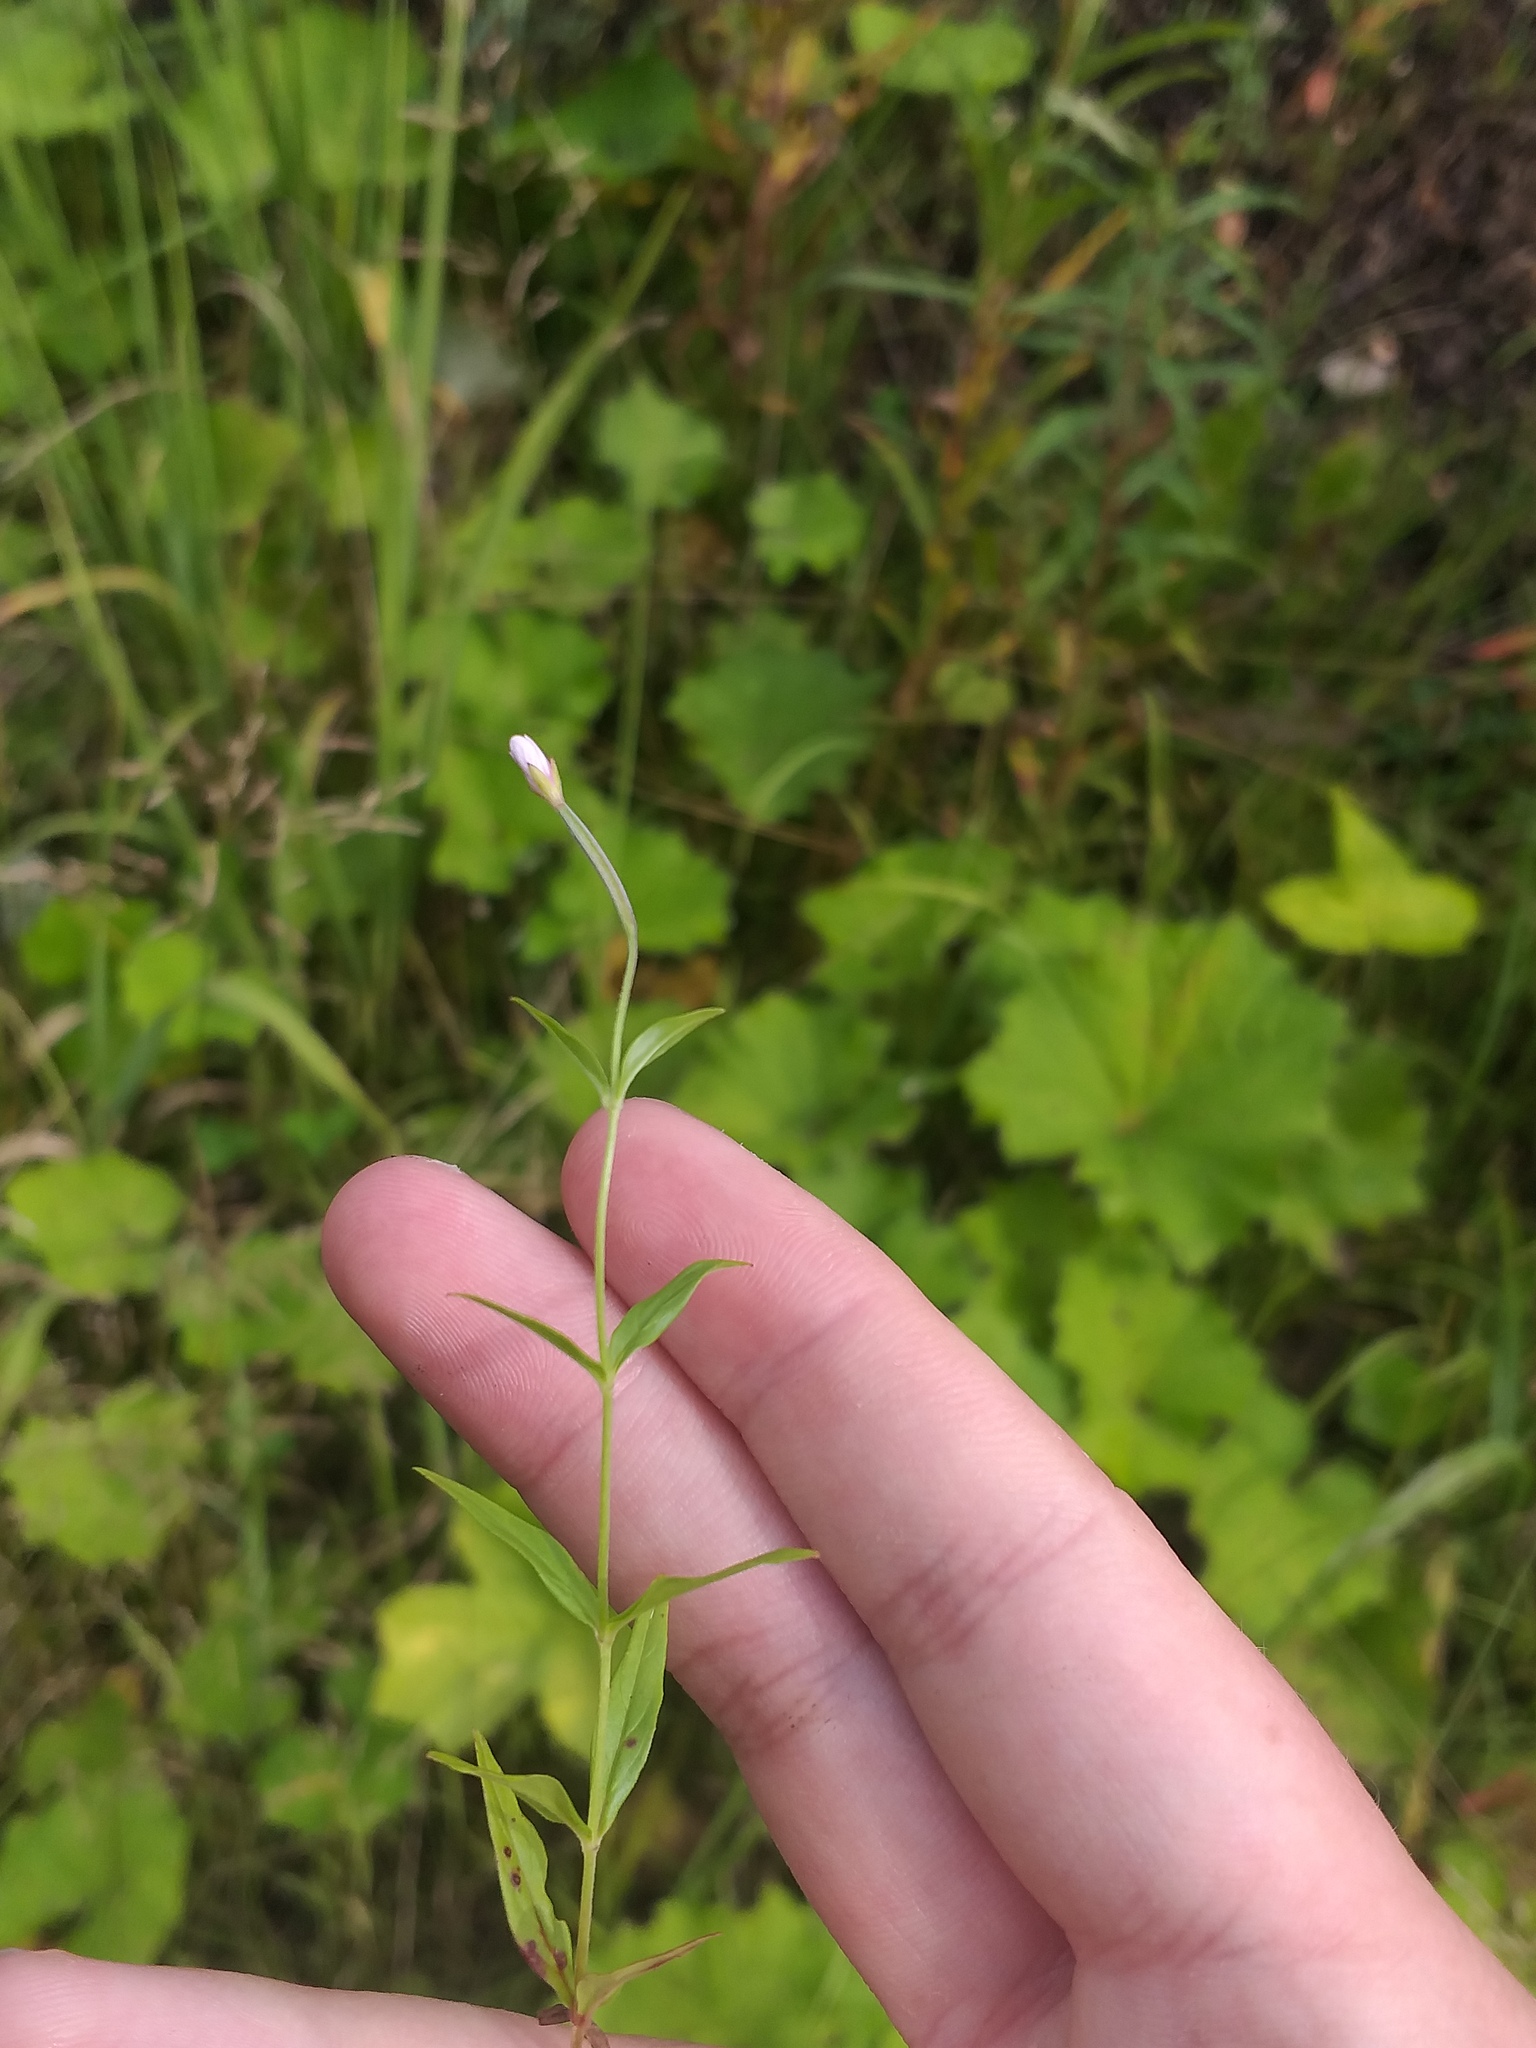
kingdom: Plantae
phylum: Tracheophyta
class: Magnoliopsida
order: Myrtales
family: Onagraceae
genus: Epilobium
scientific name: Epilobium palustre
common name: Marsh willowherb
